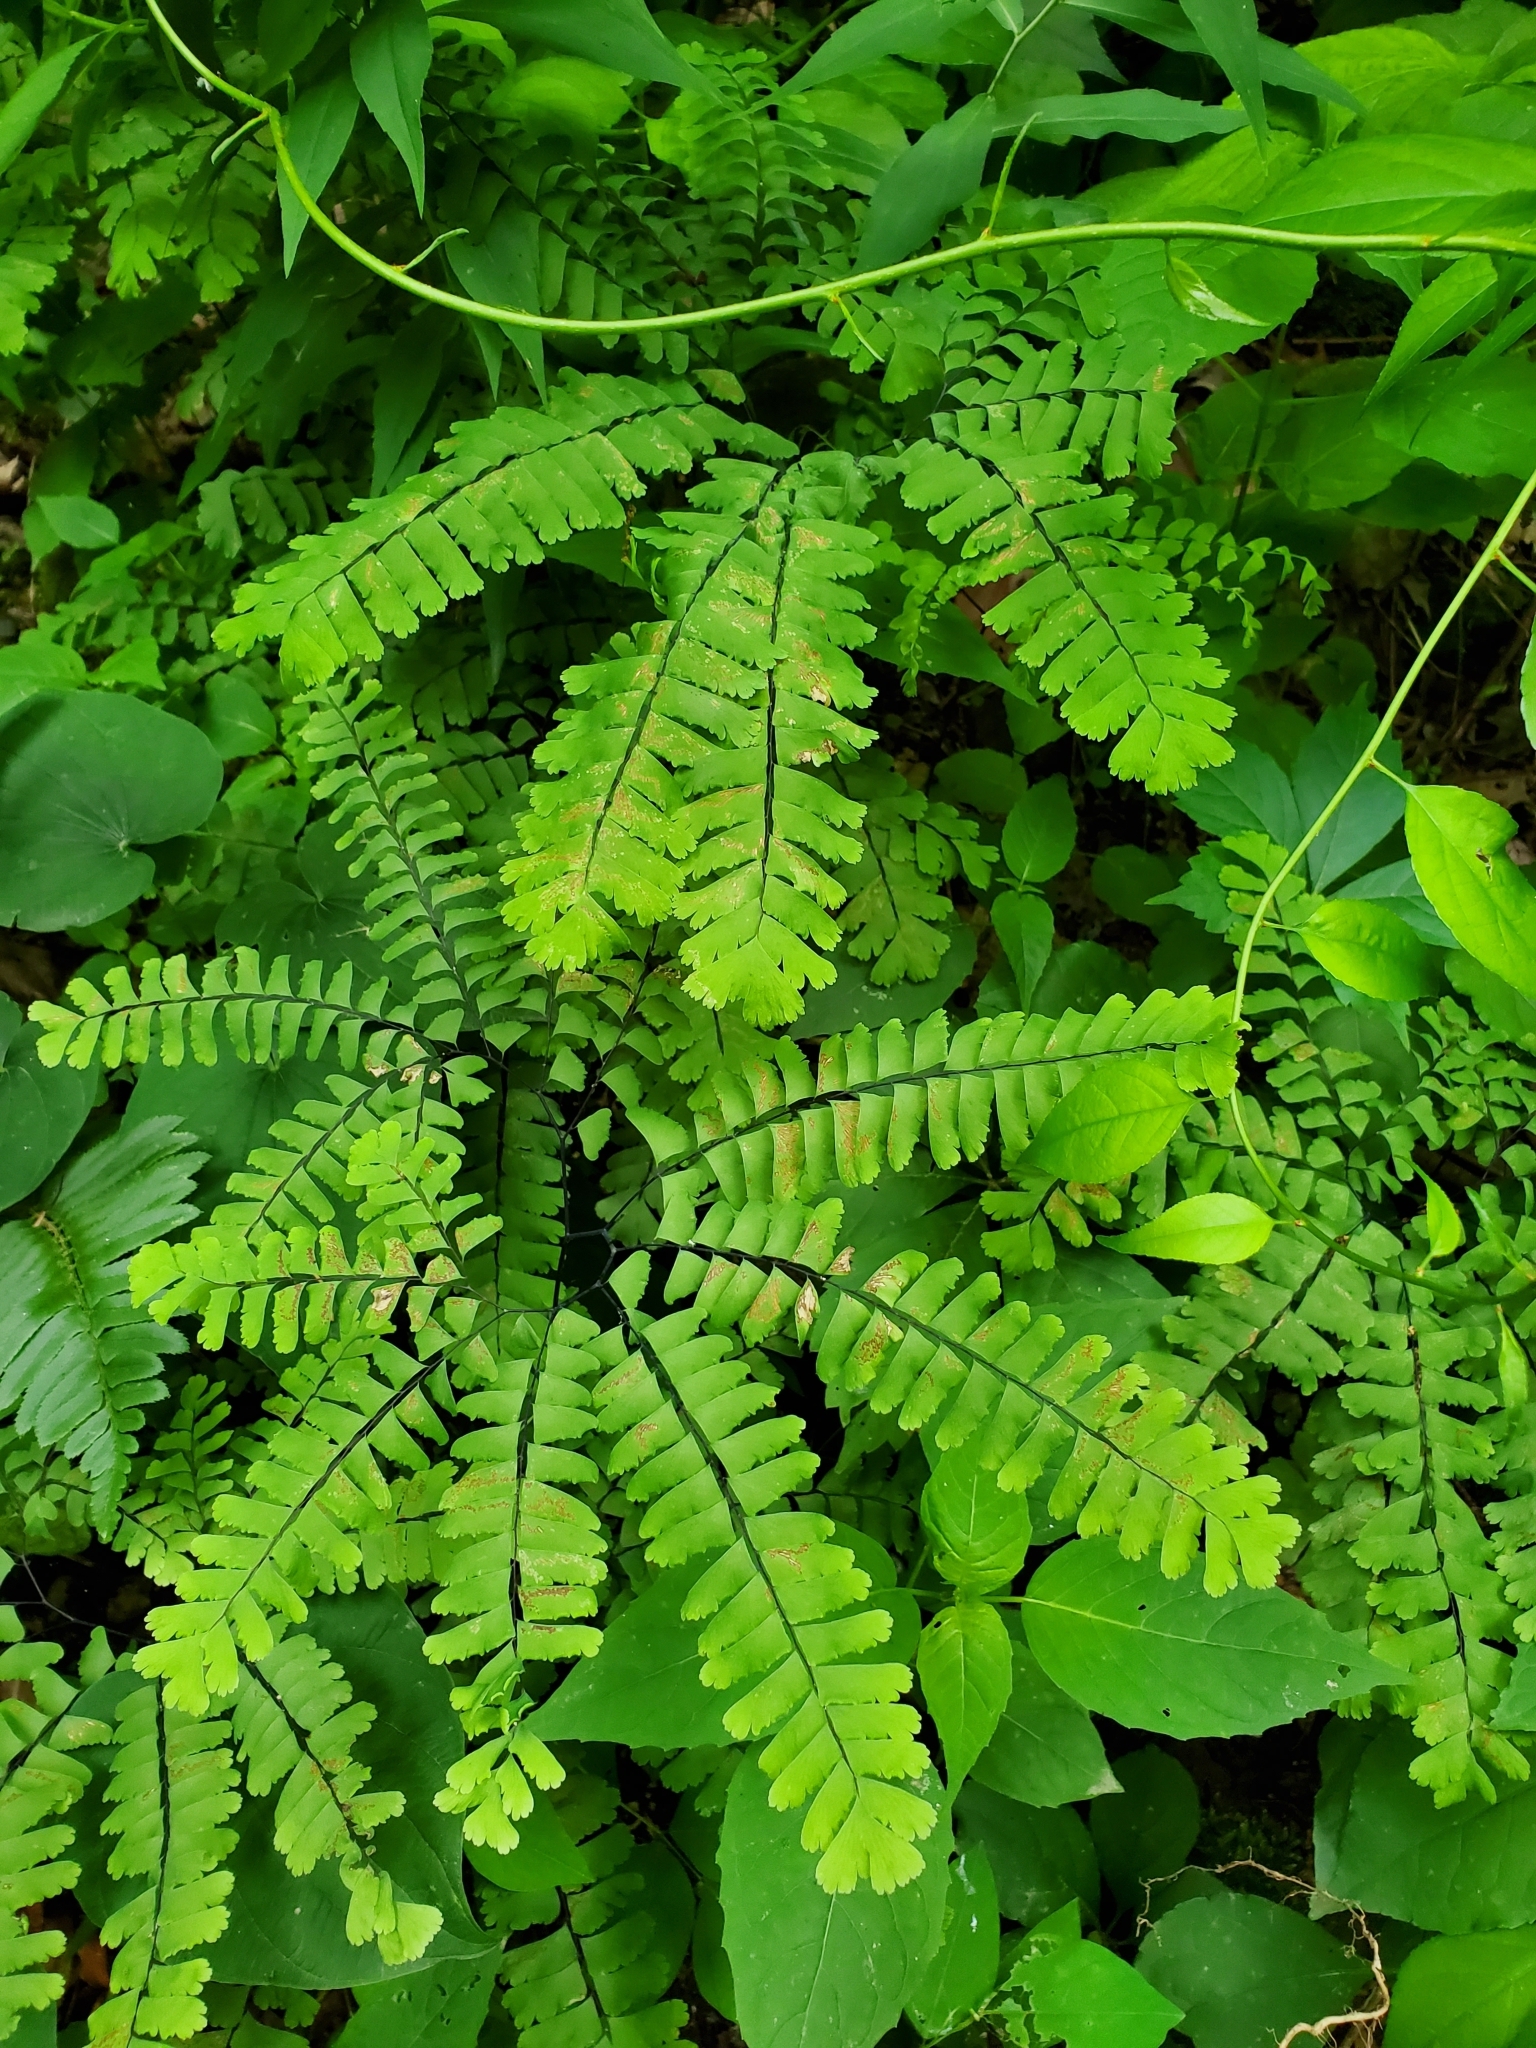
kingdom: Plantae
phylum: Tracheophyta
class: Polypodiopsida
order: Polypodiales
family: Pteridaceae
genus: Adiantum
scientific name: Adiantum pedatum
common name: Five-finger fern
